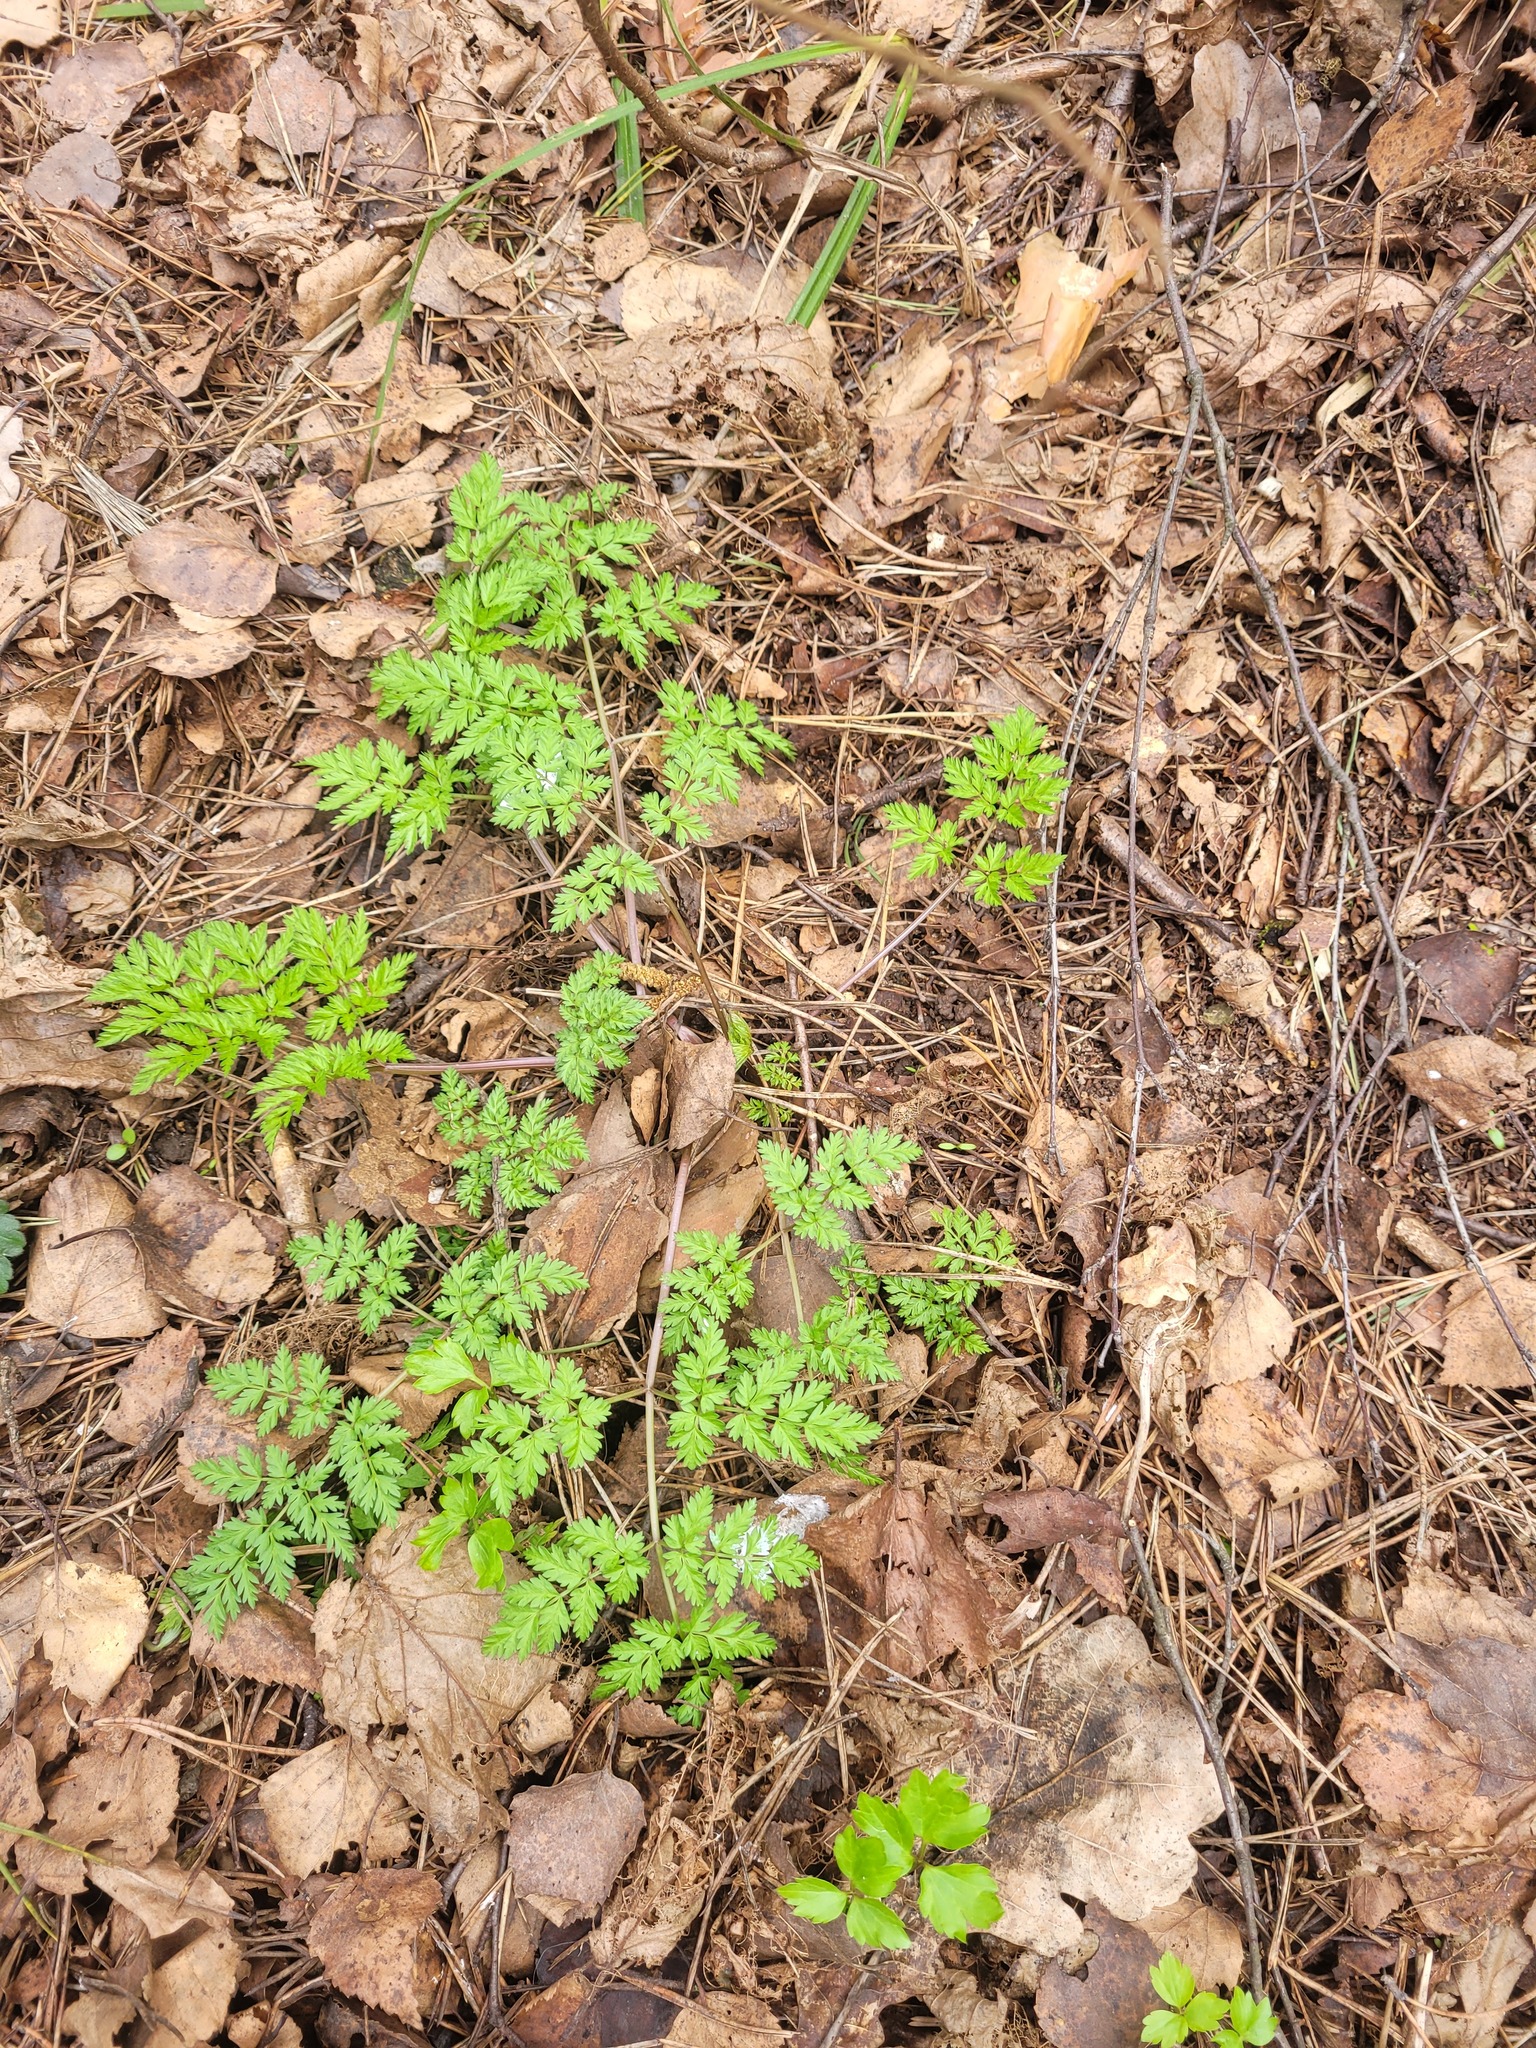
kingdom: Plantae
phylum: Tracheophyta
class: Magnoliopsida
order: Apiales
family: Apiaceae
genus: Anthriscus
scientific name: Anthriscus sylvestris
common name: Cow parsley
